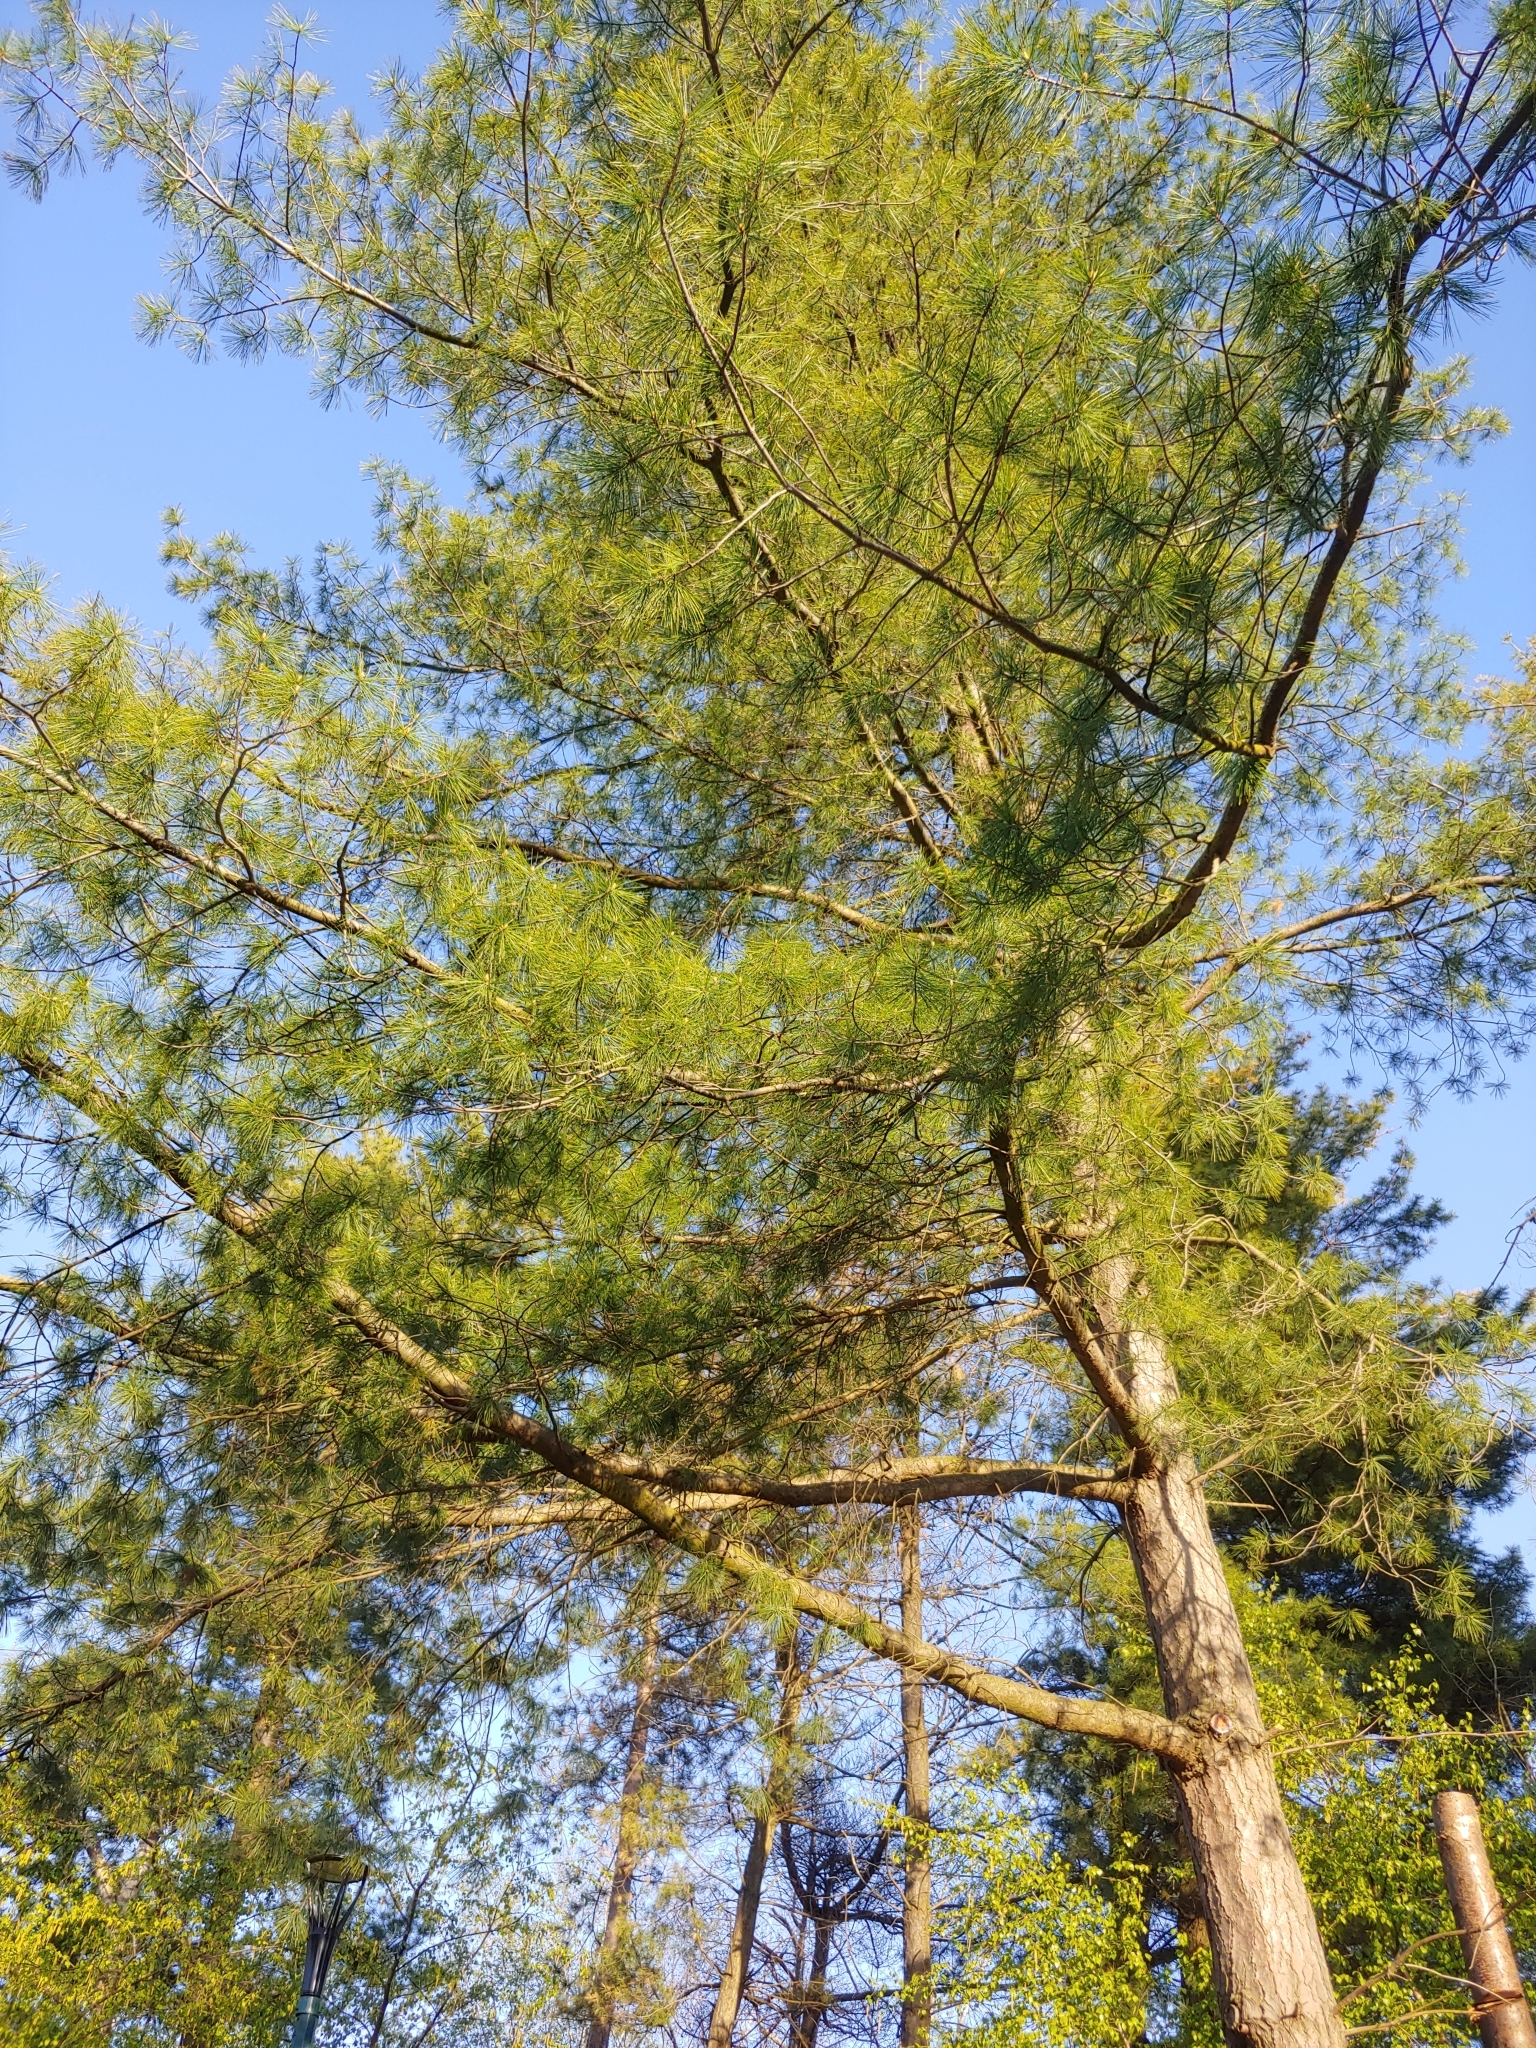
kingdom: Plantae
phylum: Tracheophyta
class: Pinopsida
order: Pinales
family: Pinaceae
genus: Pinus
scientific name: Pinus monticola
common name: Western white pine
